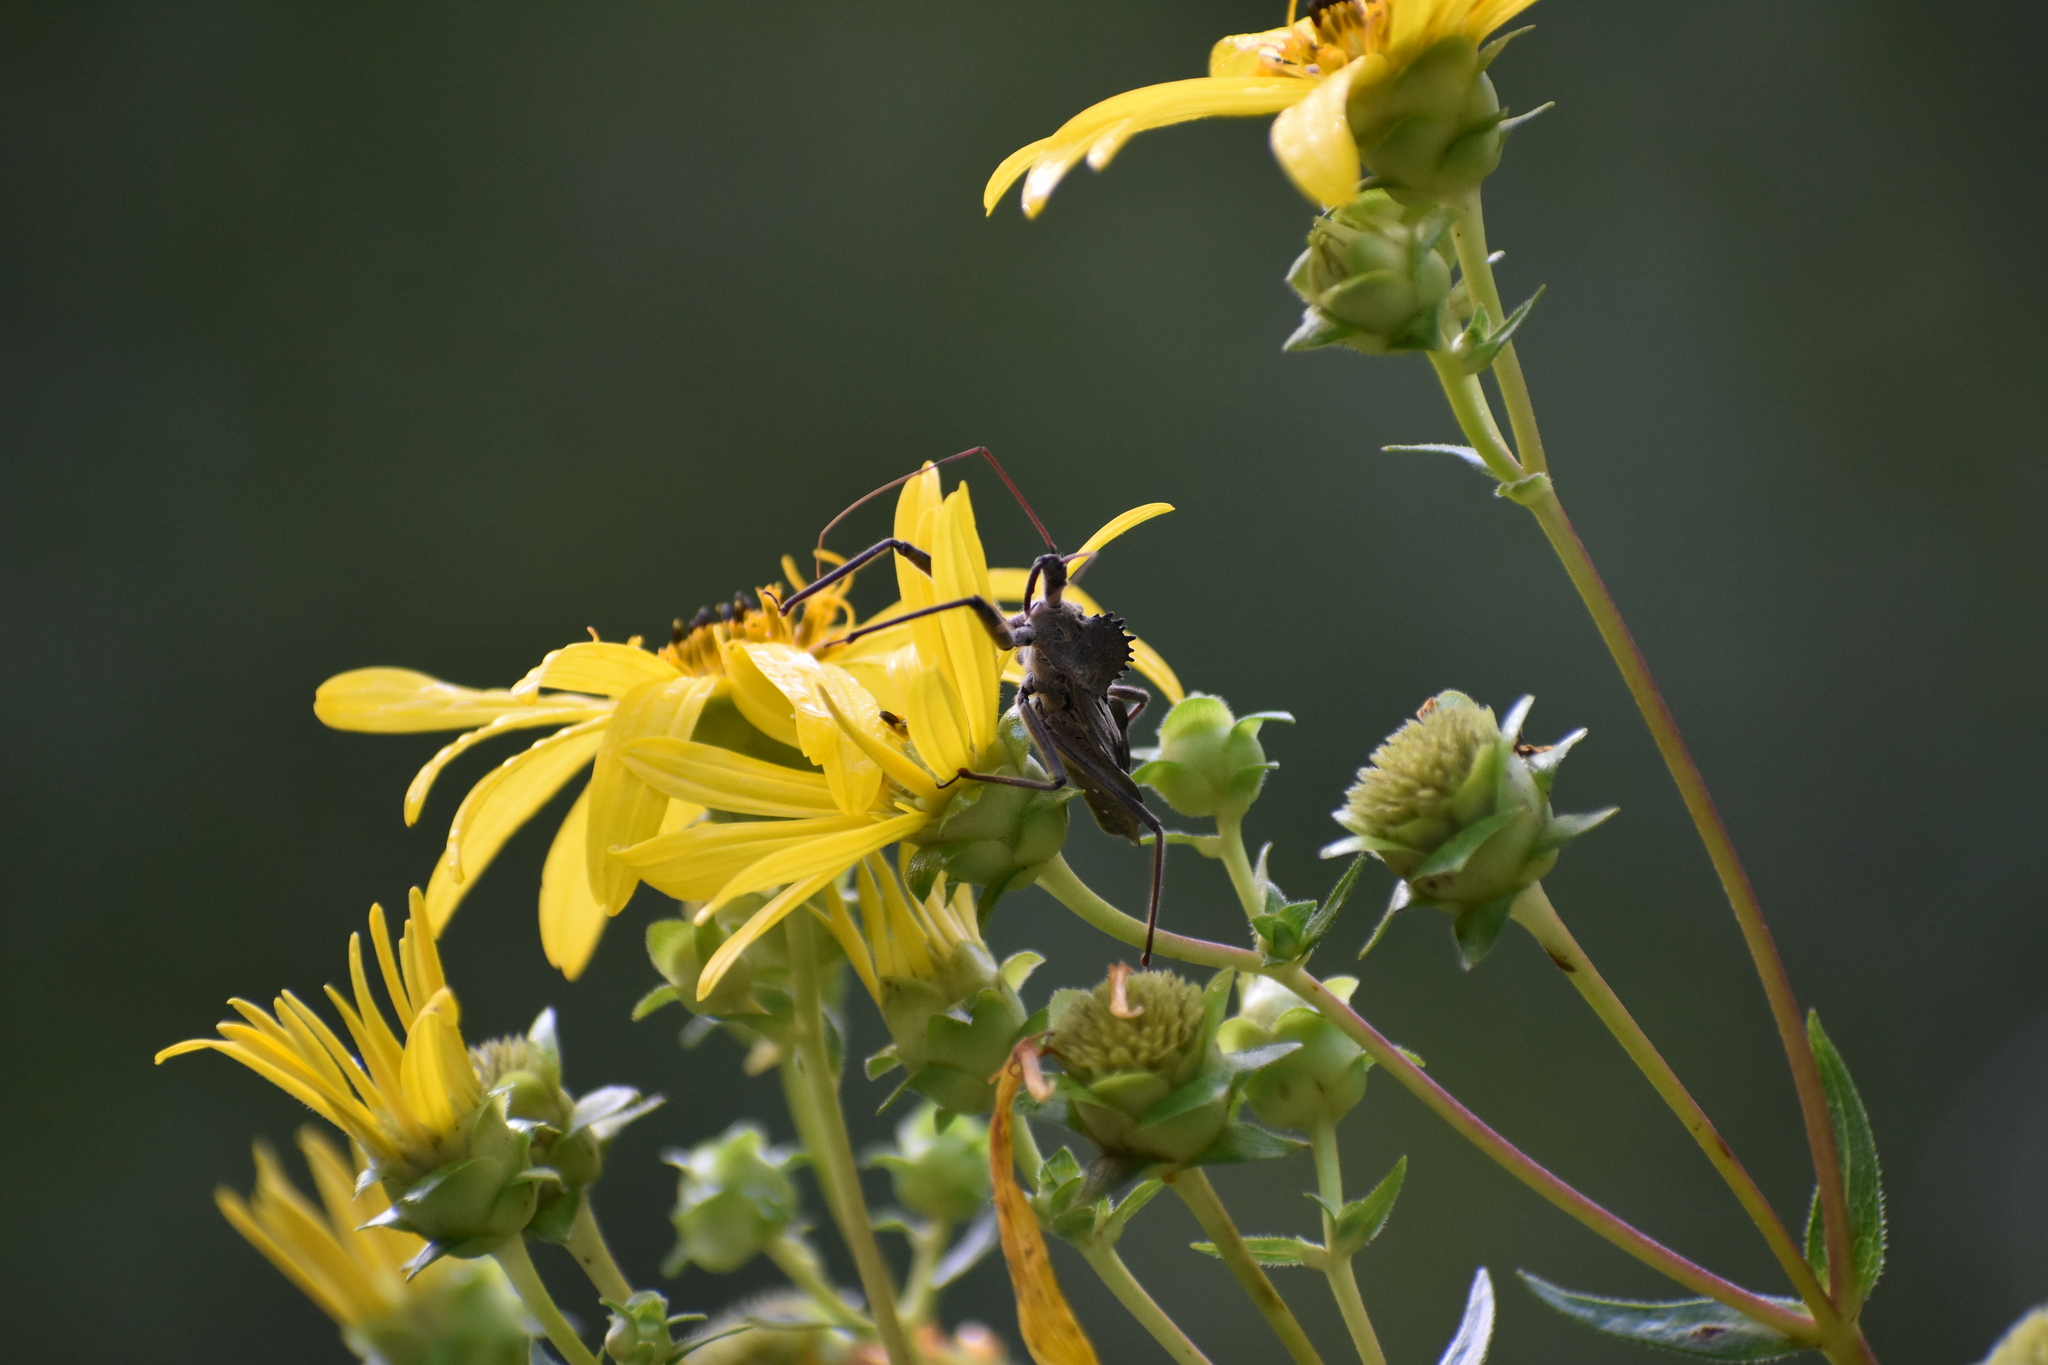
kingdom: Animalia
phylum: Arthropoda
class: Insecta
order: Hemiptera
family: Reduviidae
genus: Arilus
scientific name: Arilus cristatus
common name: North american wheel bug
